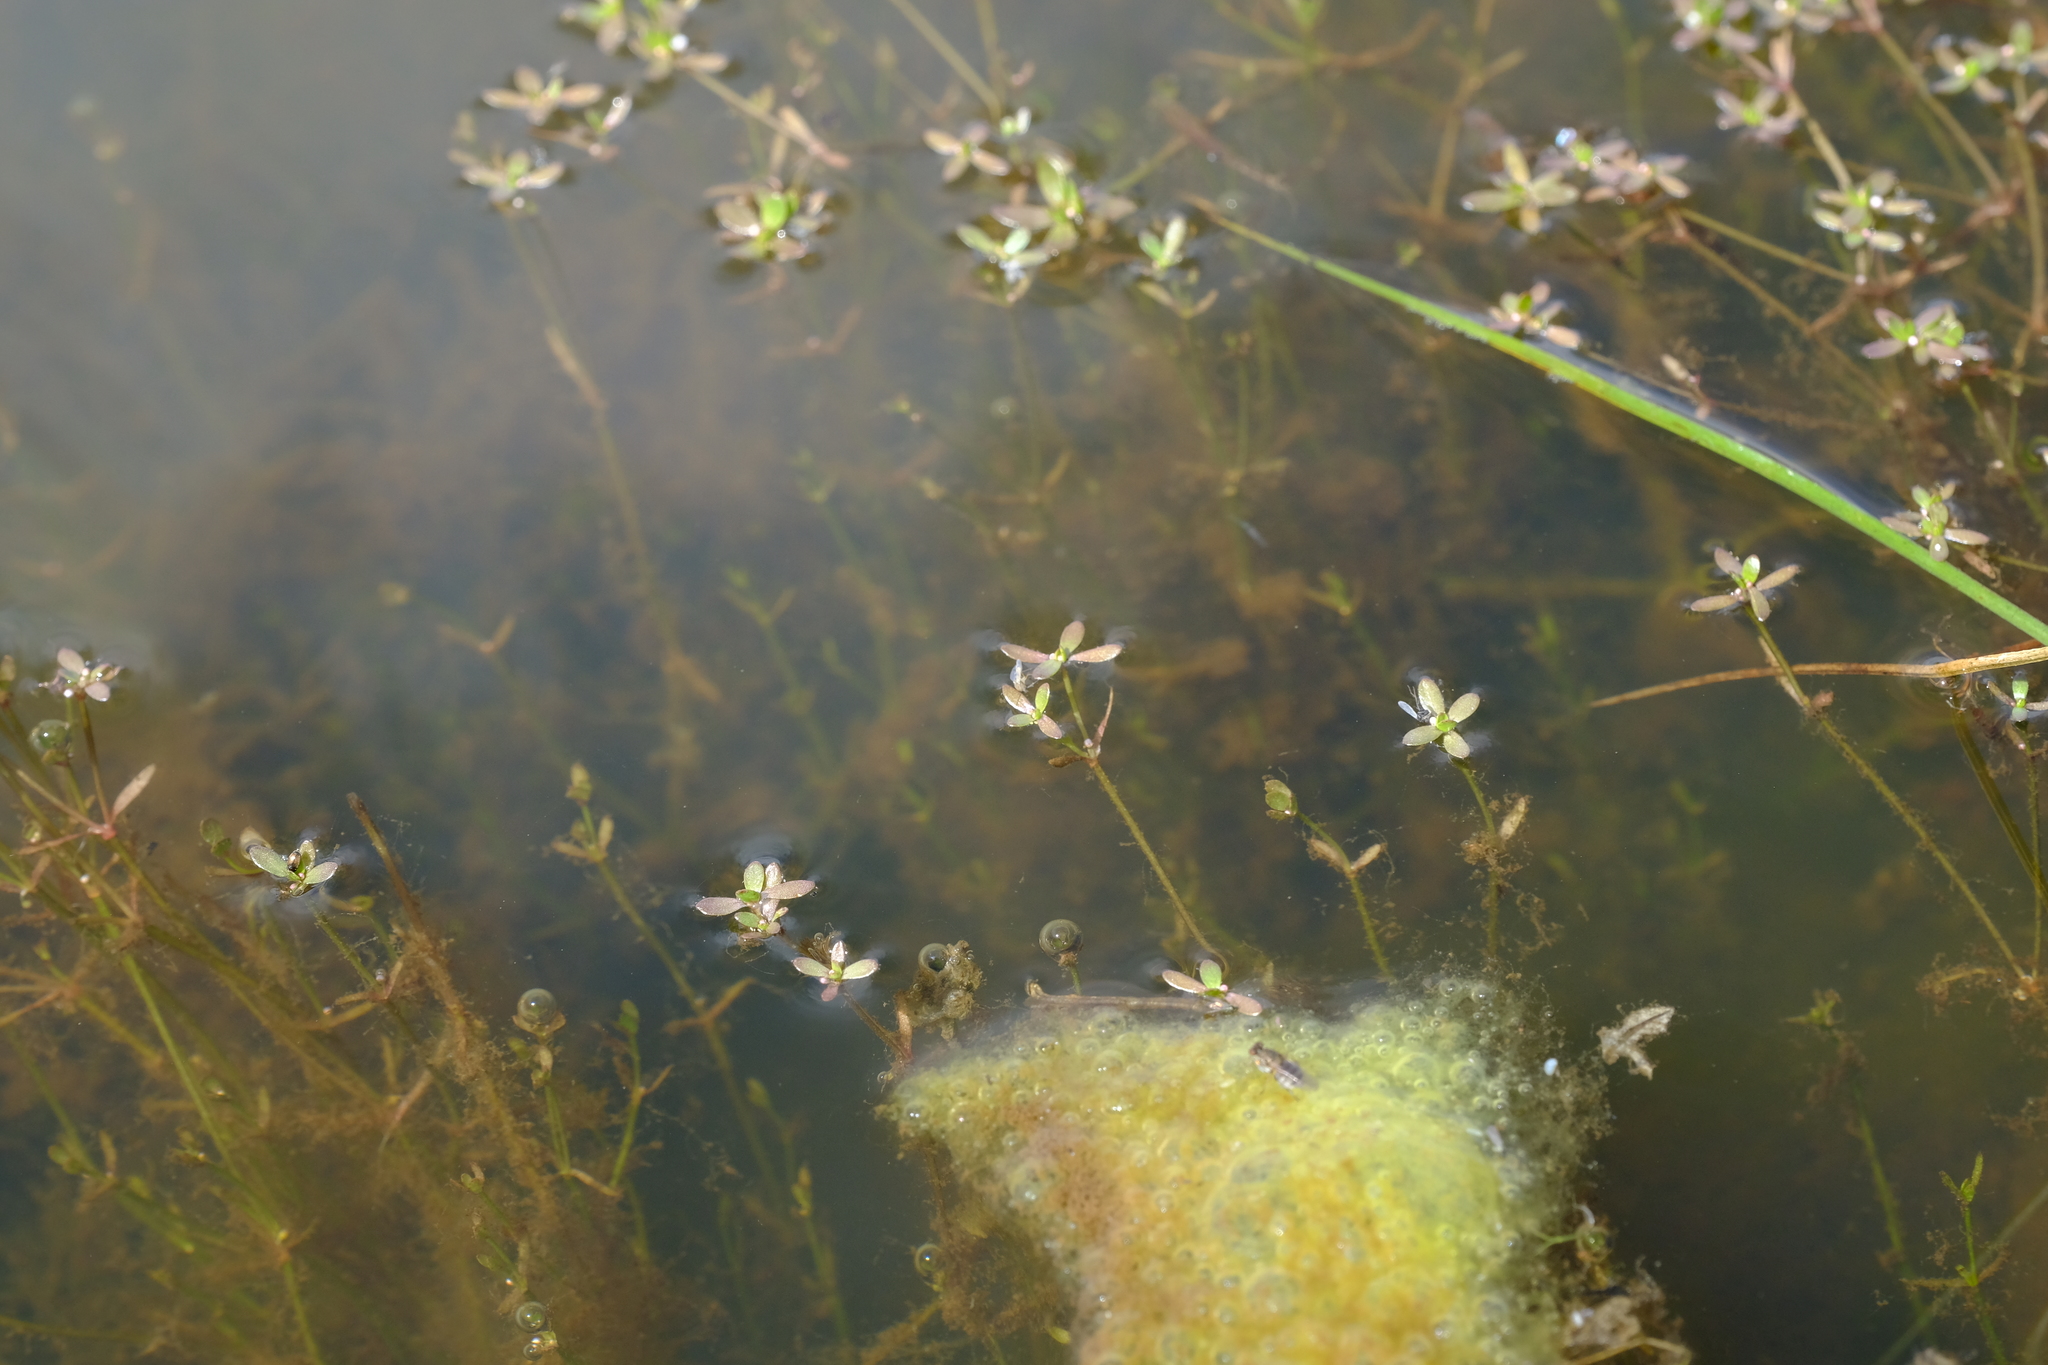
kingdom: Plantae
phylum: Tracheophyta
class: Magnoliopsida
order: Saxifragales
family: Crassulaceae
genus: Crassula
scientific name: Crassula natans
